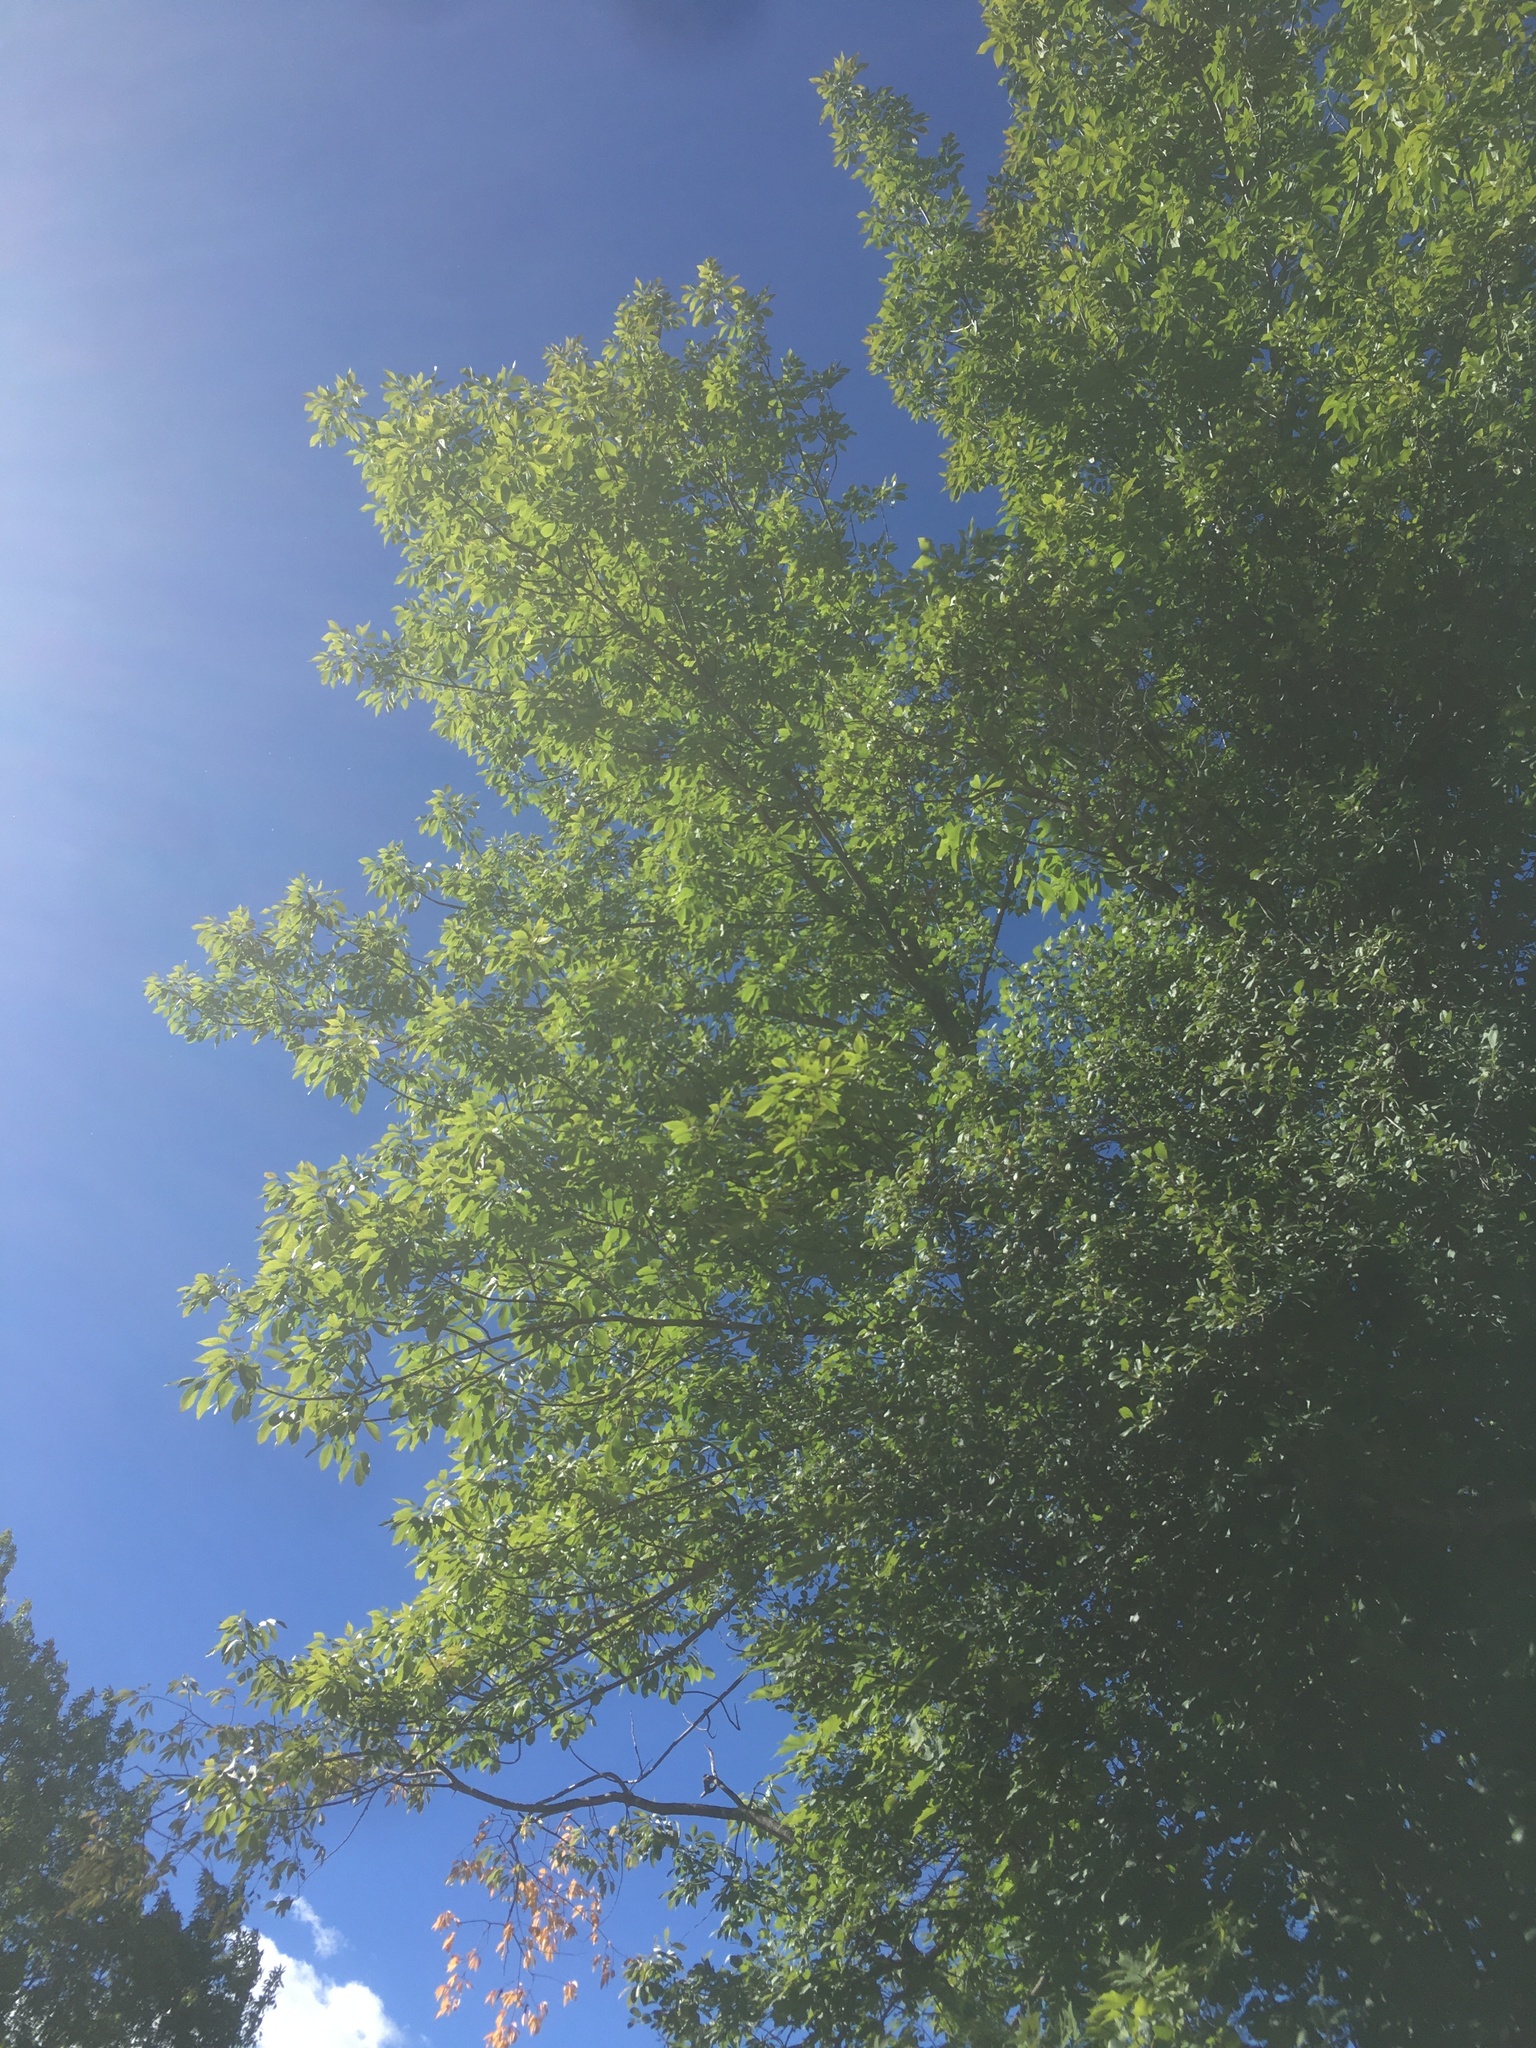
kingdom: Plantae
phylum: Tracheophyta
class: Magnoliopsida
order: Lamiales
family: Oleaceae
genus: Fraxinus
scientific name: Fraxinus pennsylvanica
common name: Green ash
